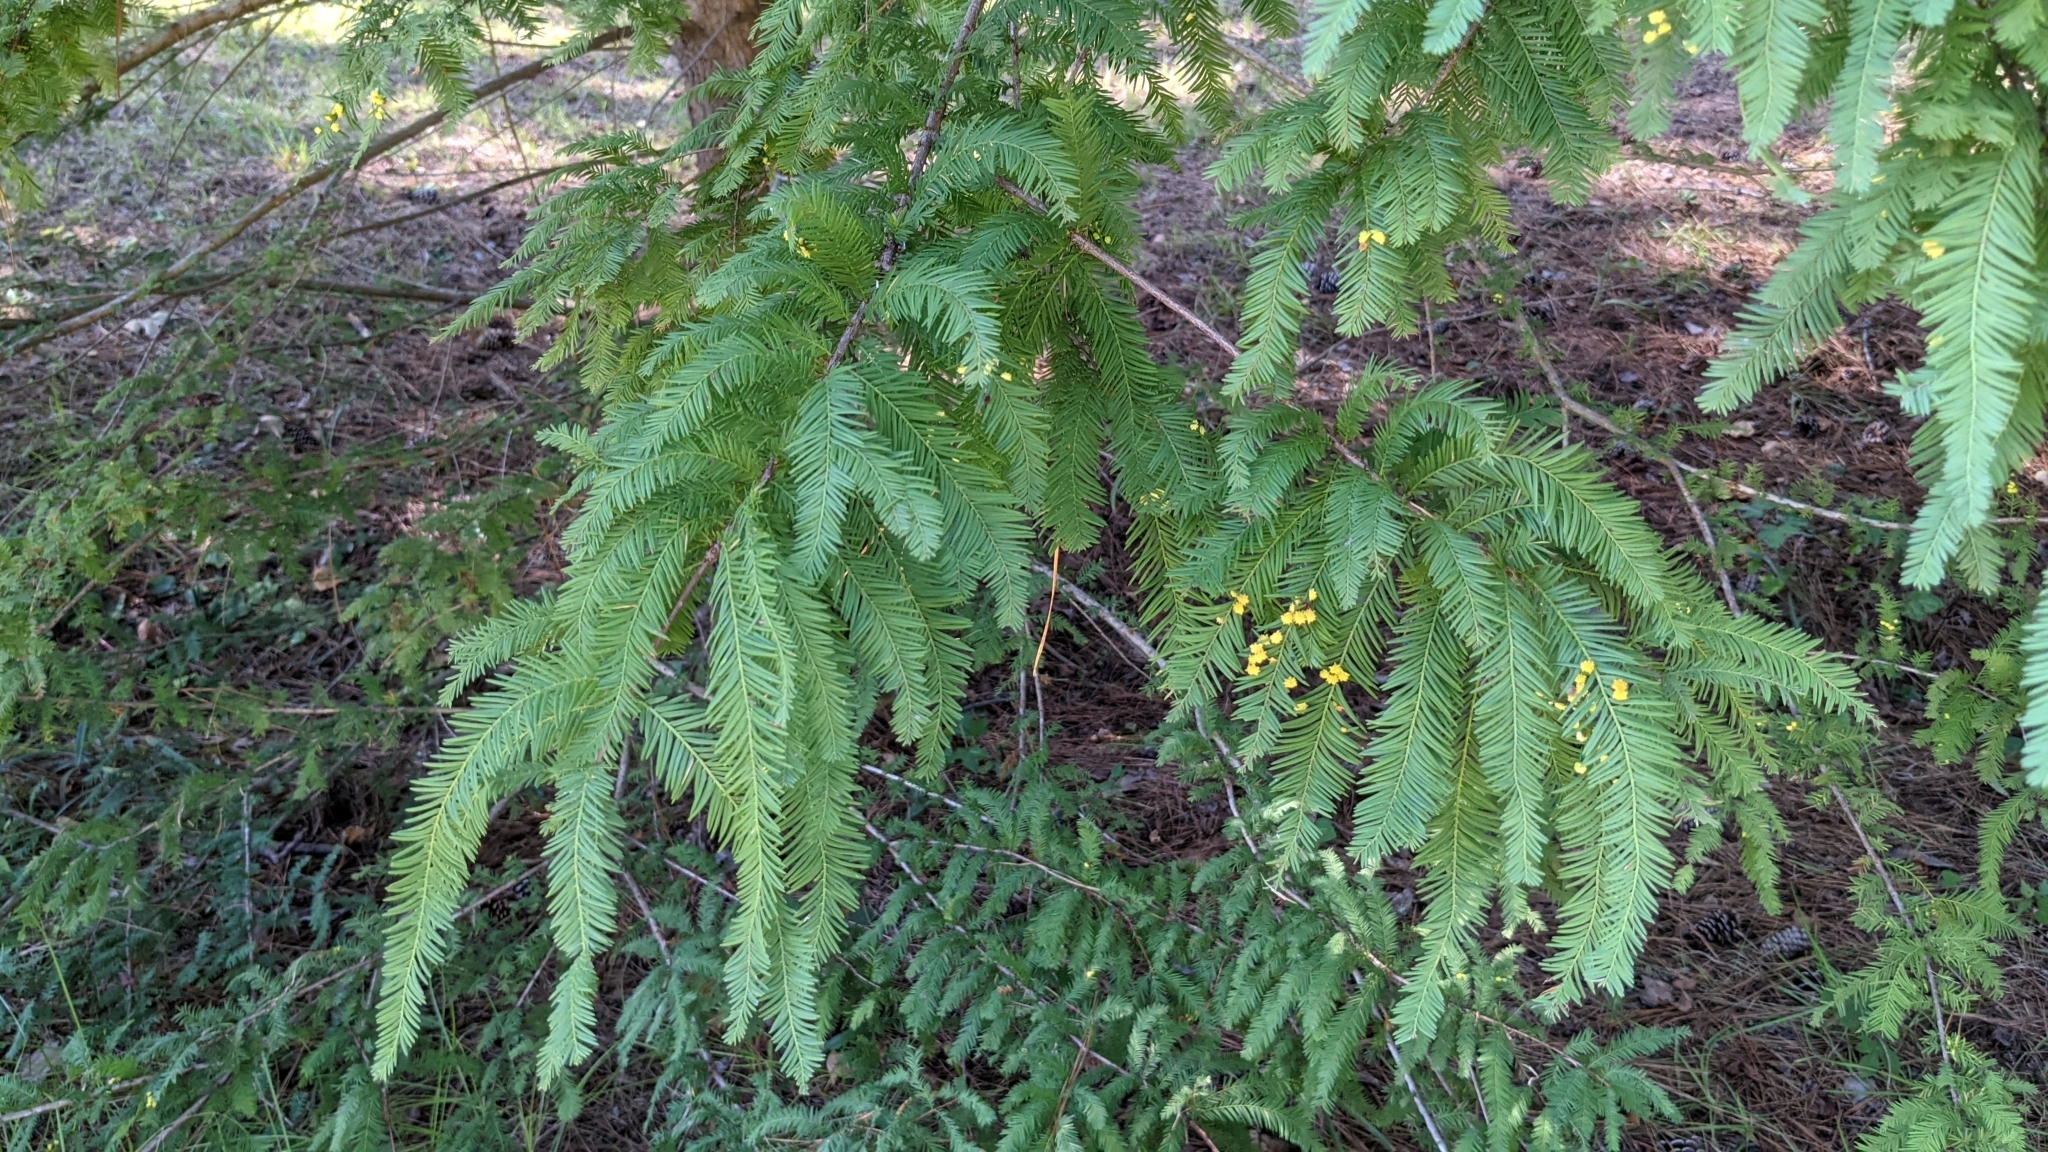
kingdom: Animalia
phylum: Arthropoda
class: Insecta
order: Diptera
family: Cecidomyiidae
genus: Taxodiomyia
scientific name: Taxodiomyia
